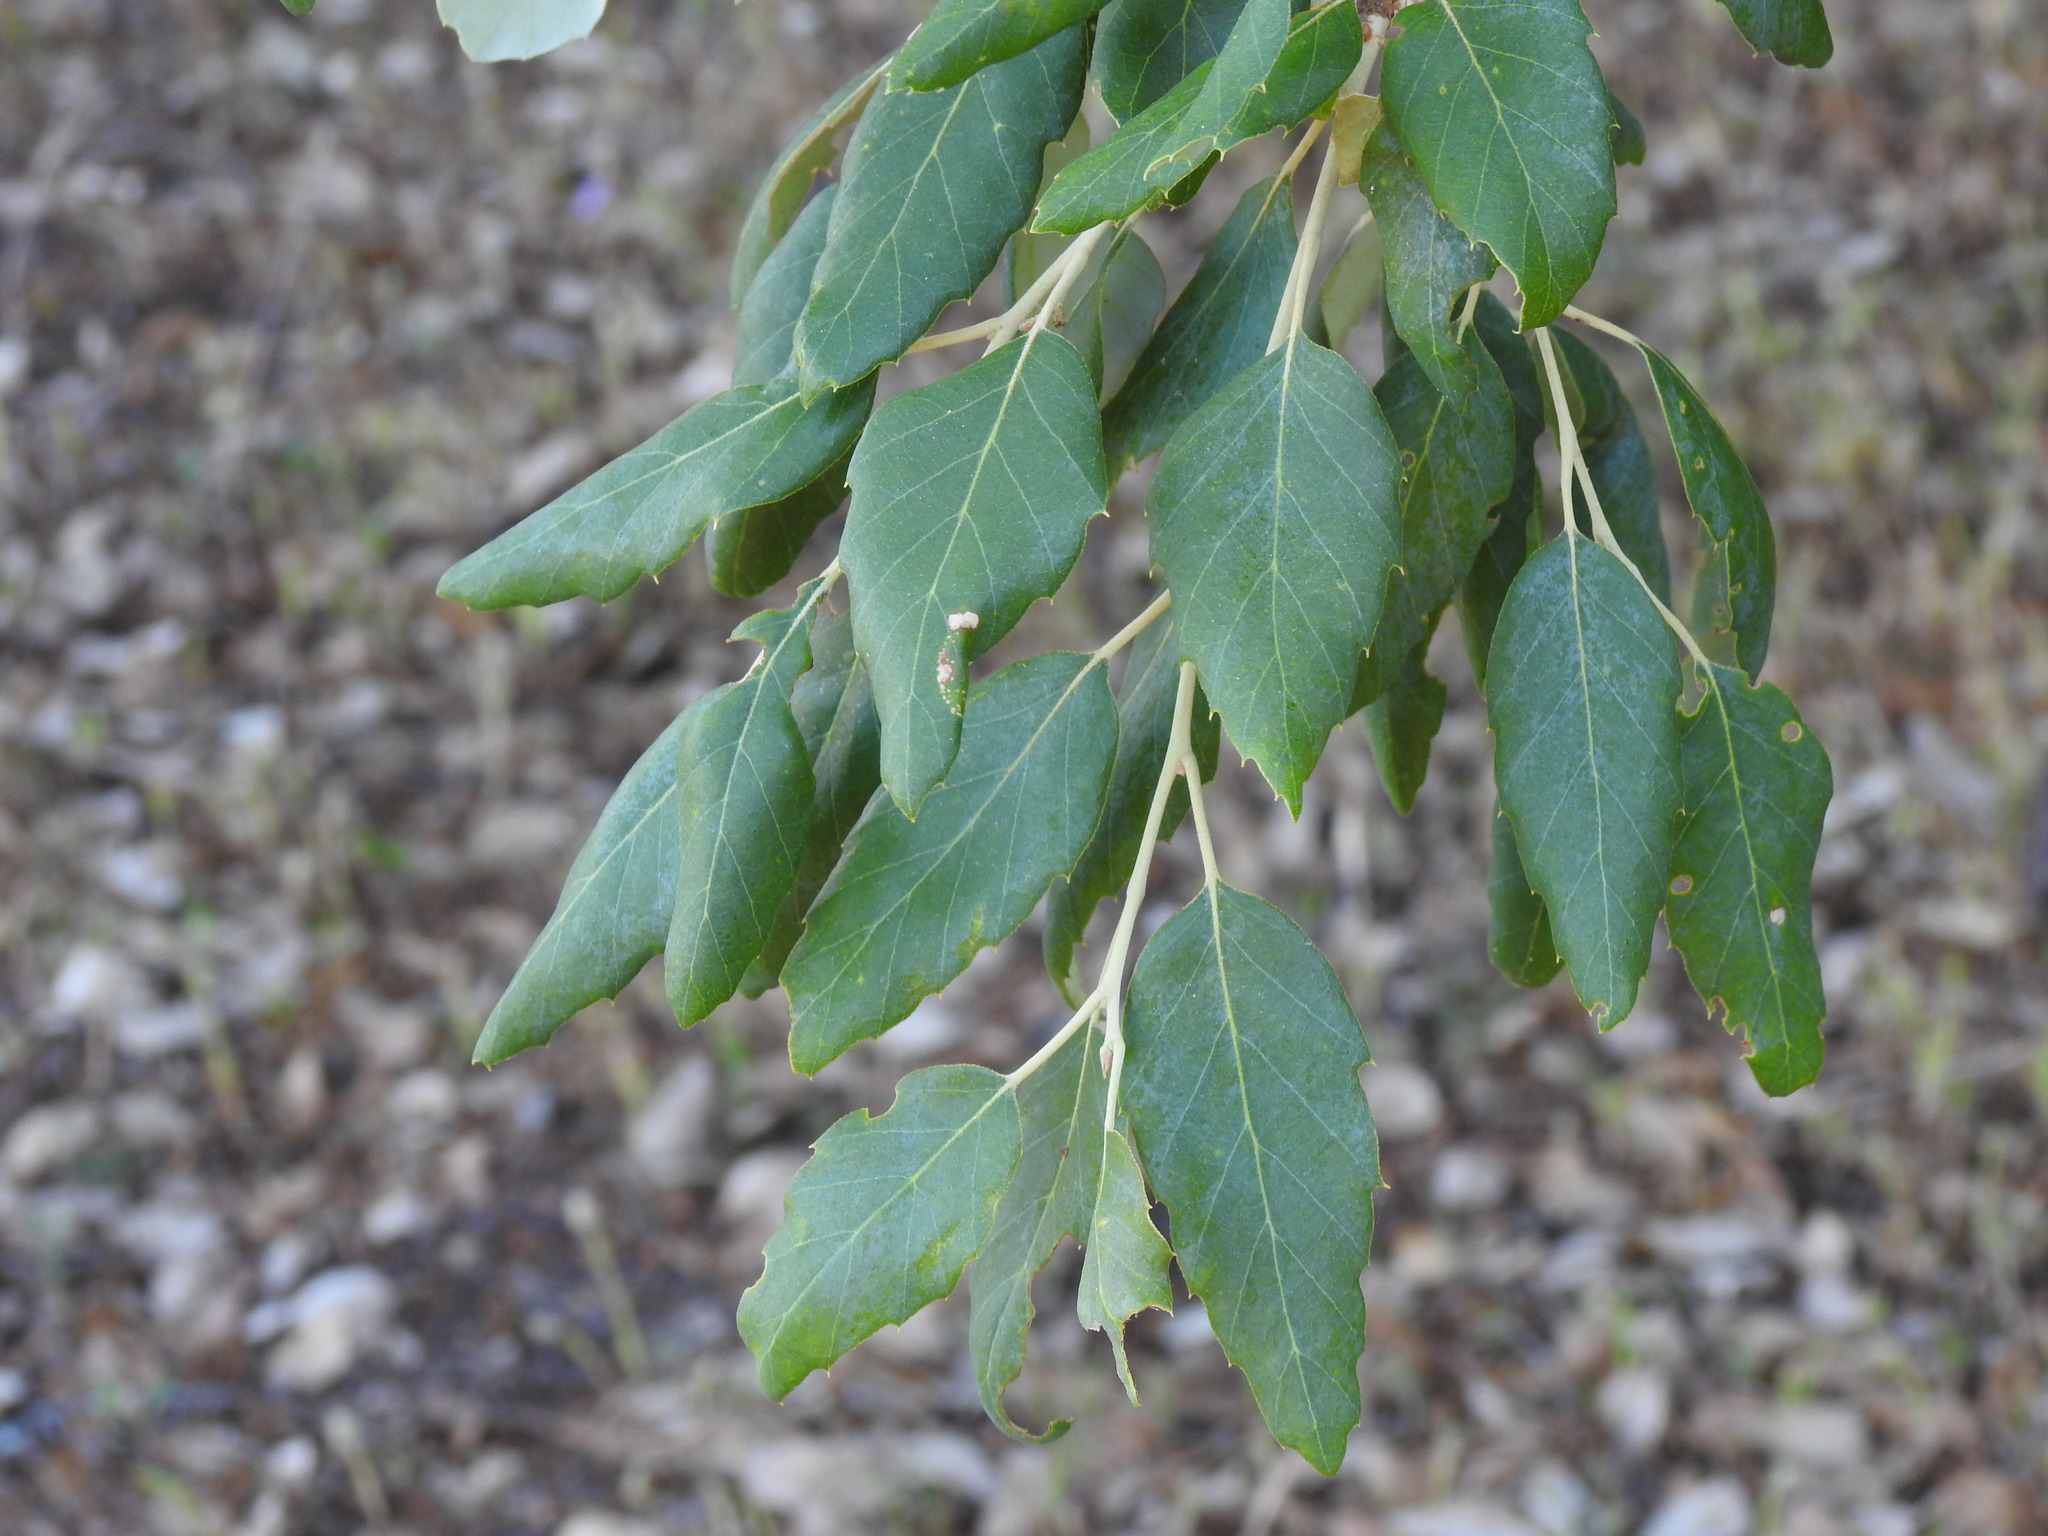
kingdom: Plantae
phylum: Tracheophyta
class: Magnoliopsida
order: Fagales
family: Fagaceae
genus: Quercus
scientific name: Quercus suber
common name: Cork oak
